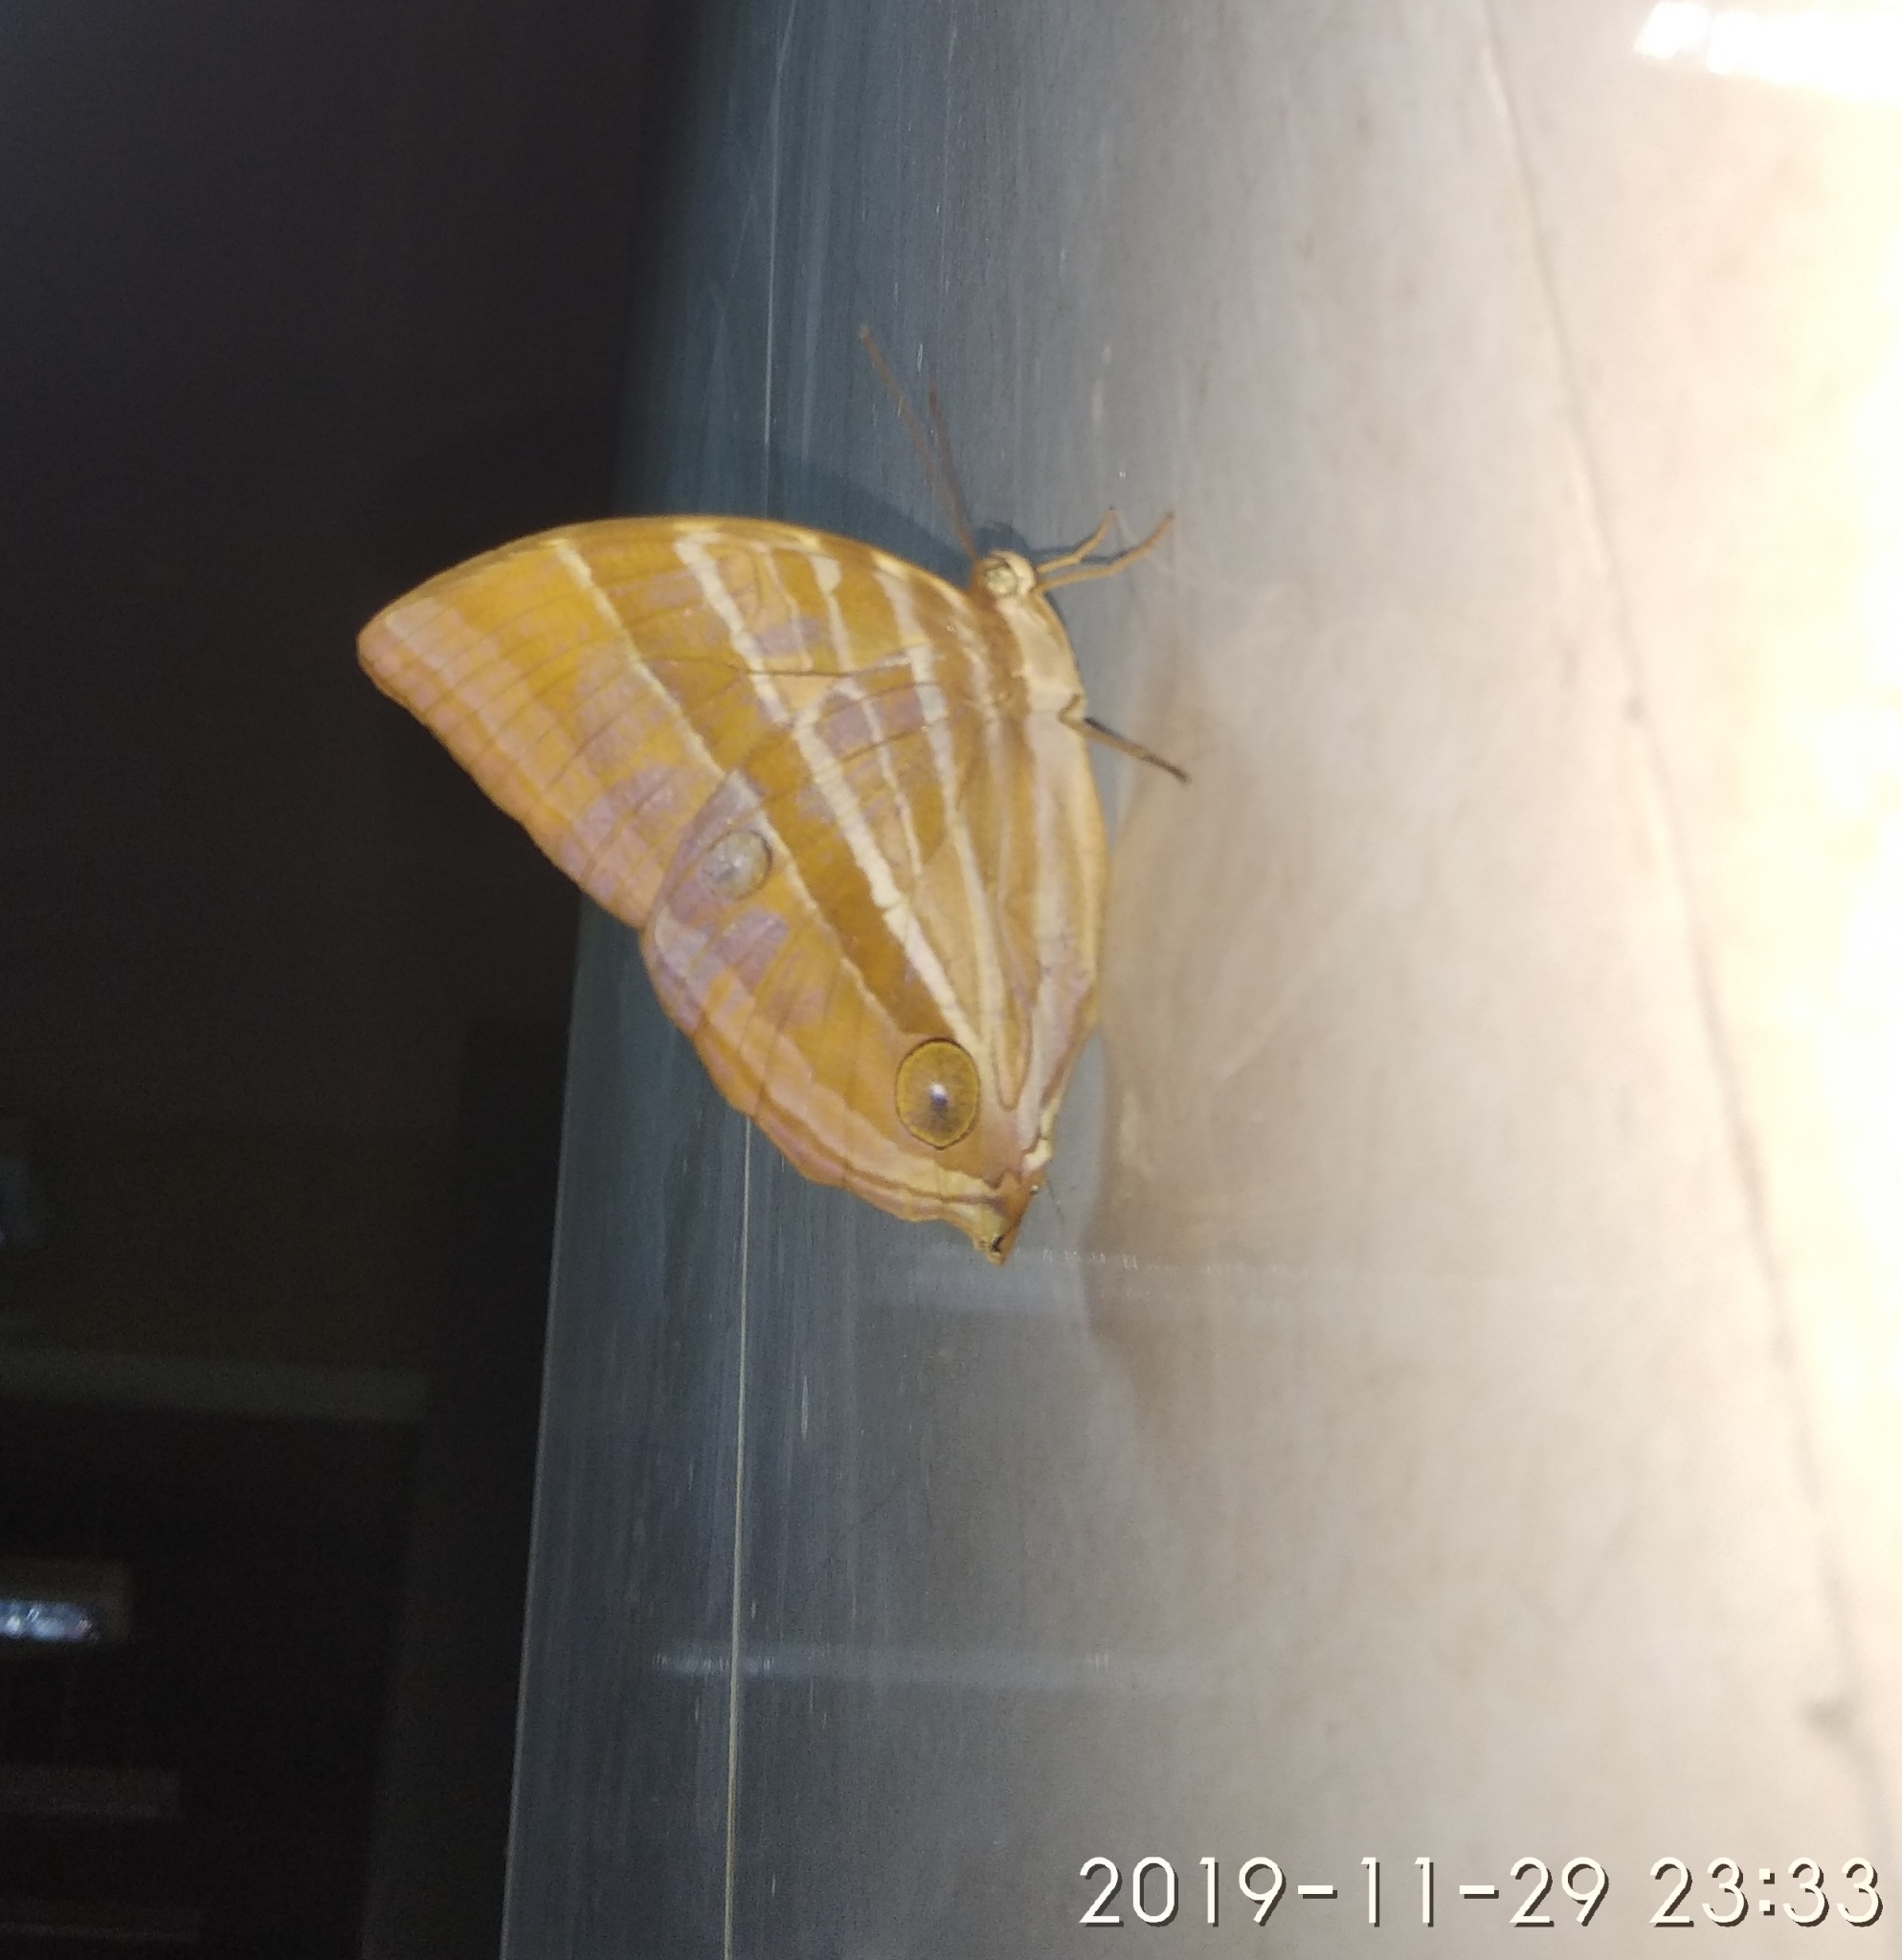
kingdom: Animalia
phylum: Arthropoda
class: Insecta
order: Lepidoptera
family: Nymphalidae
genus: Amathusia
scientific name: Amathusia phidippus
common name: Palm king
